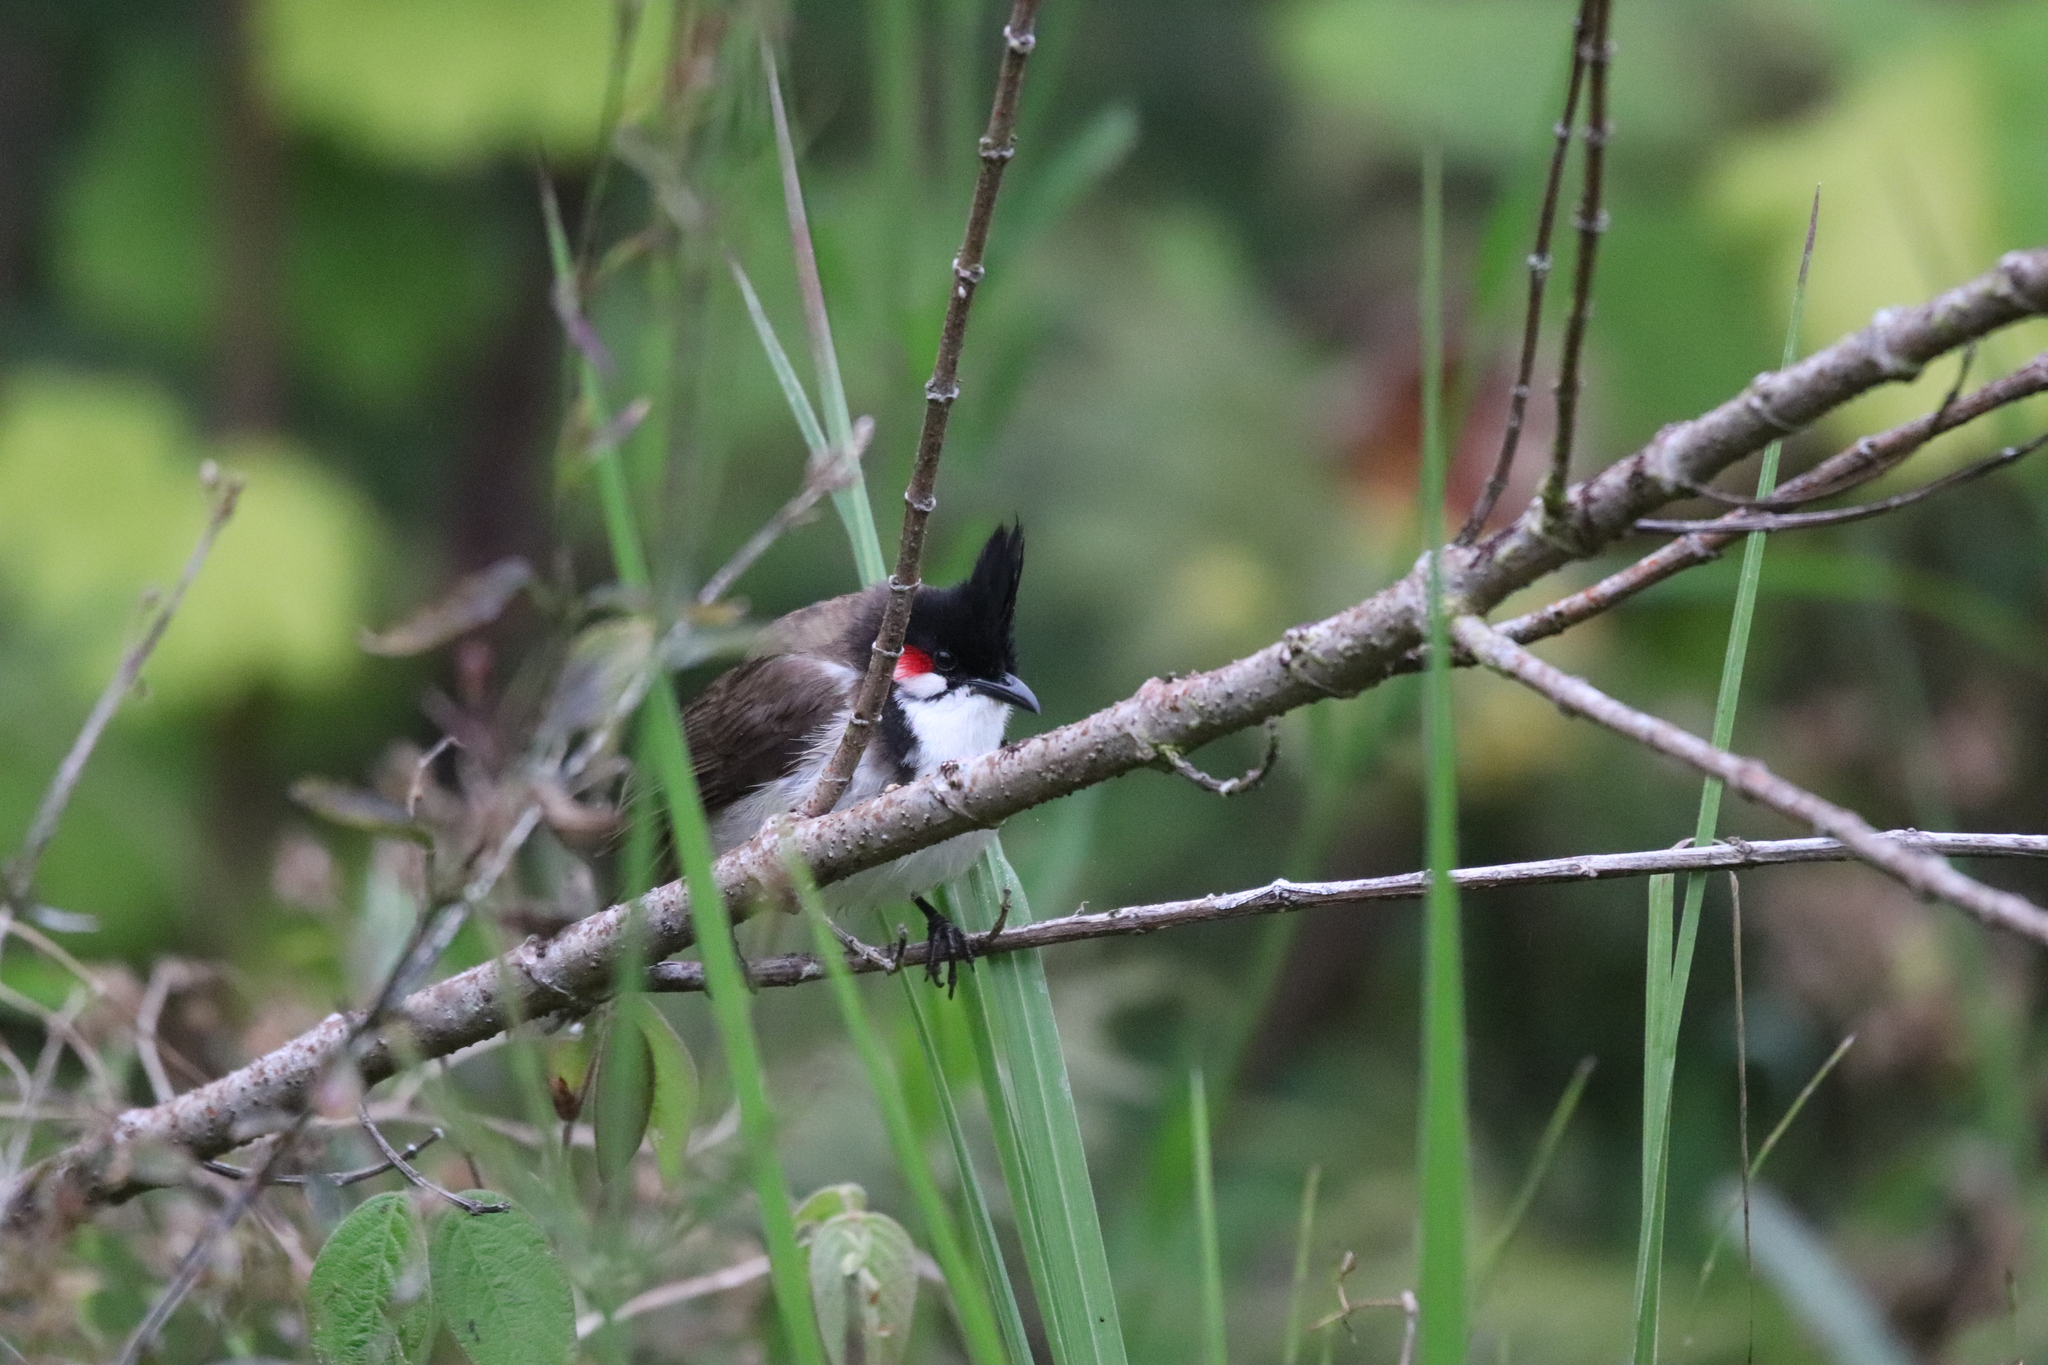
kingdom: Animalia
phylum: Chordata
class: Aves
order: Passeriformes
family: Pycnonotidae
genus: Pycnonotus
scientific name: Pycnonotus jocosus
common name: Red-whiskered bulbul
